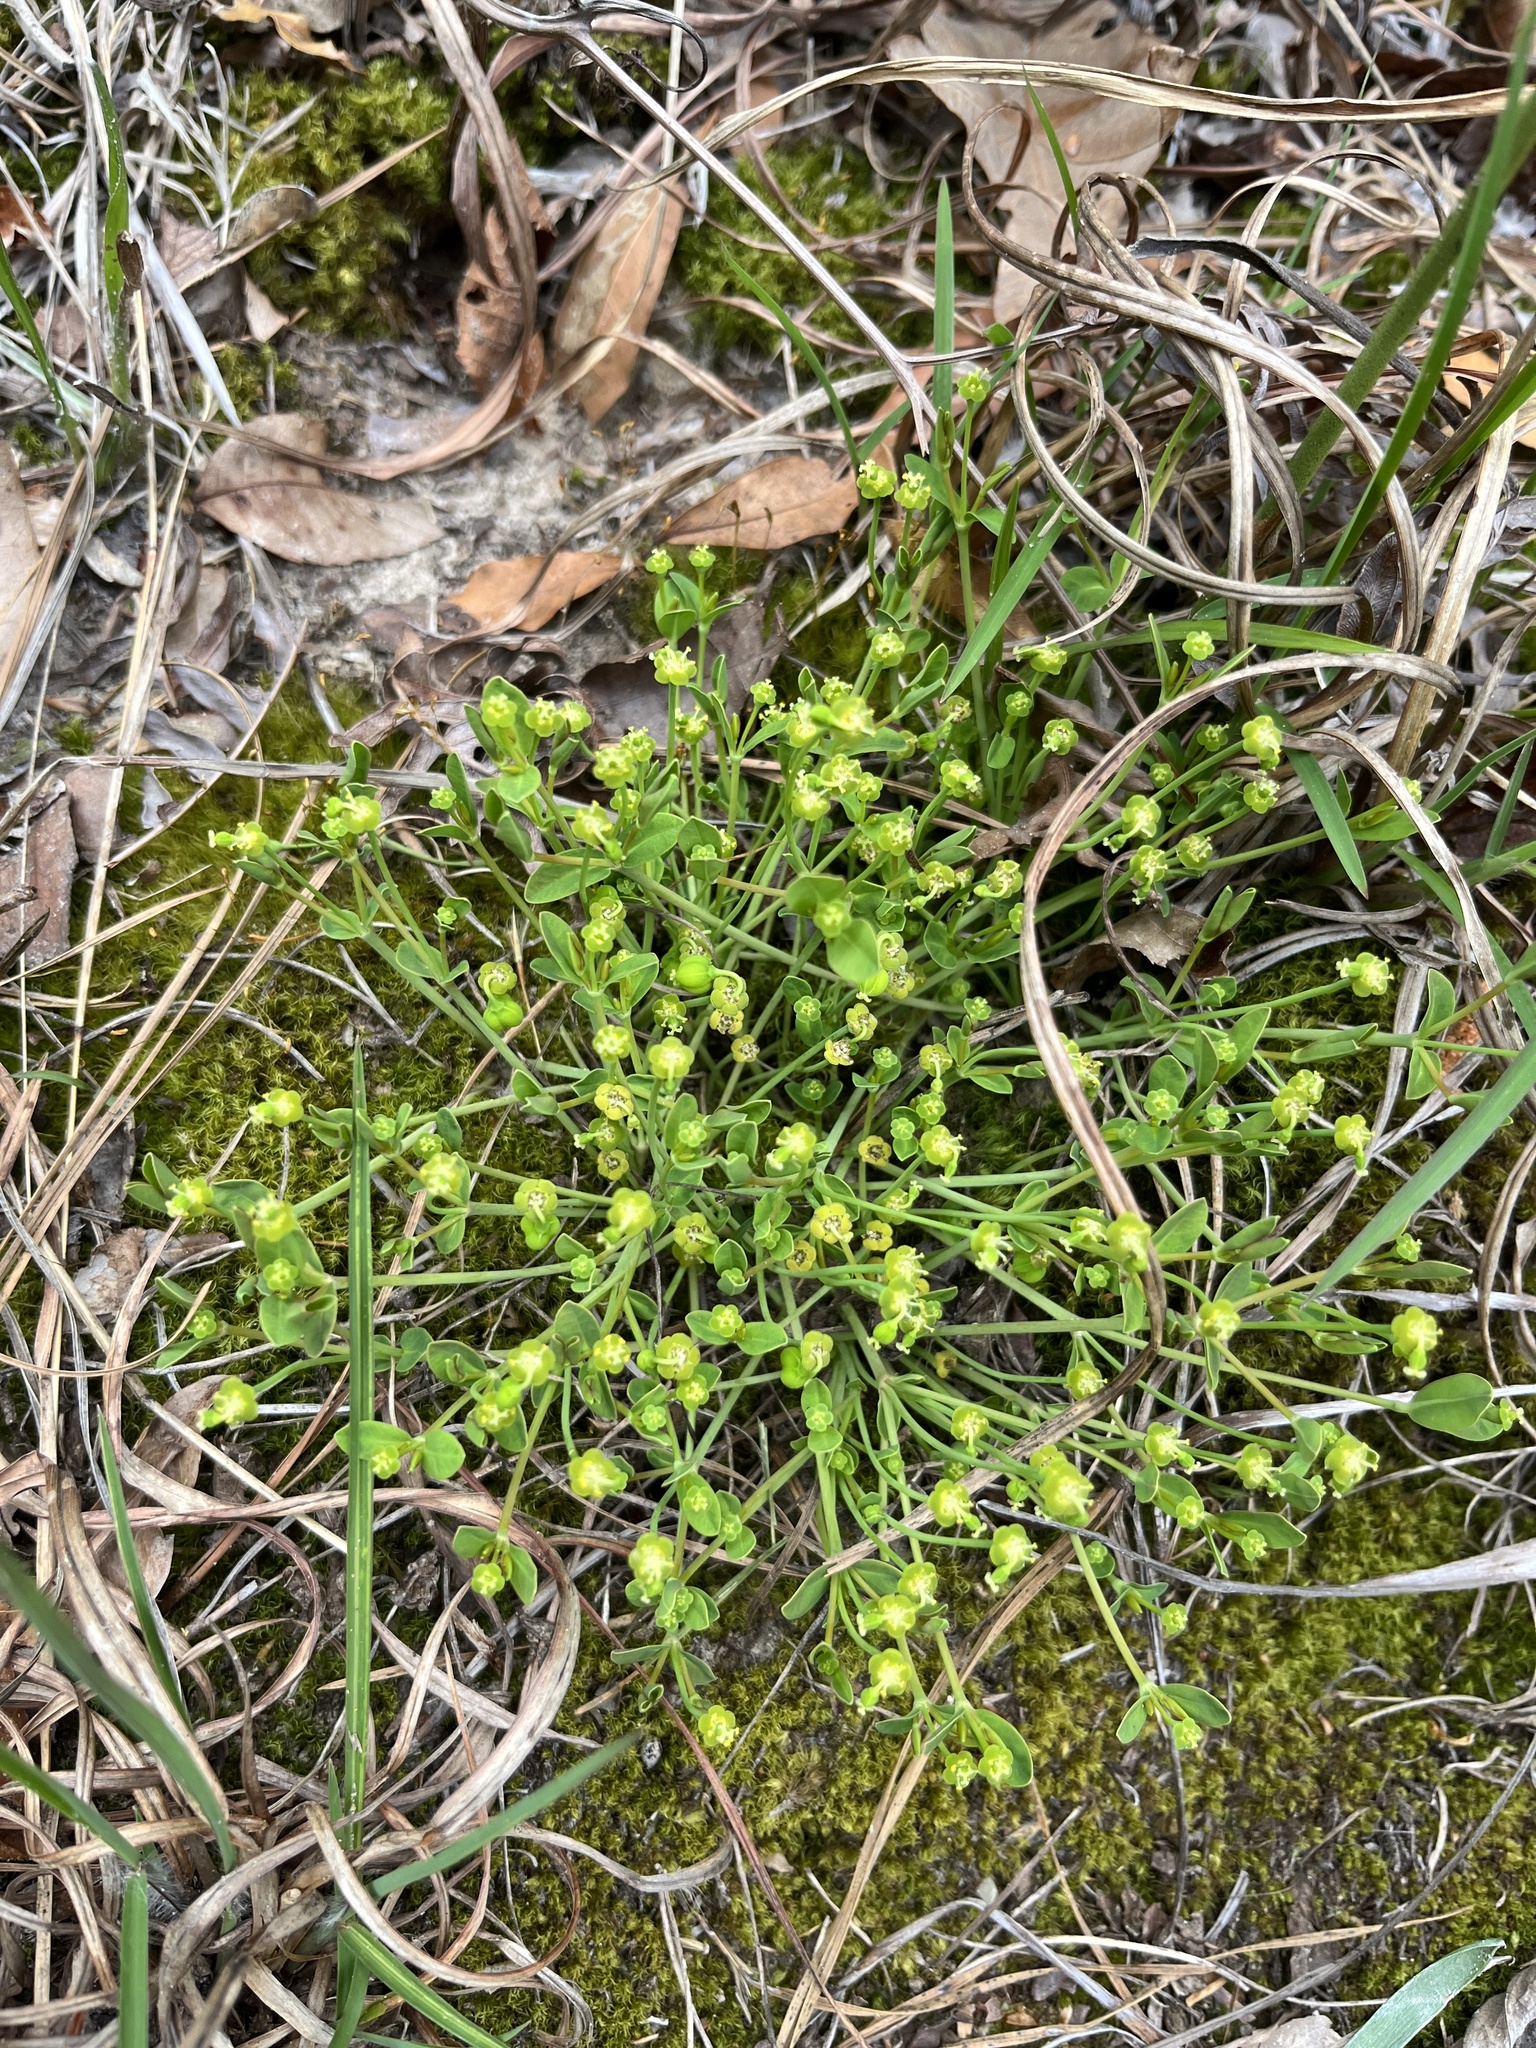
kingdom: Plantae
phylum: Tracheophyta
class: Magnoliopsida
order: Malpighiales
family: Euphorbiaceae
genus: Euphorbia
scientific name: Euphorbia ipecacuanhae
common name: Carolina ipecac
